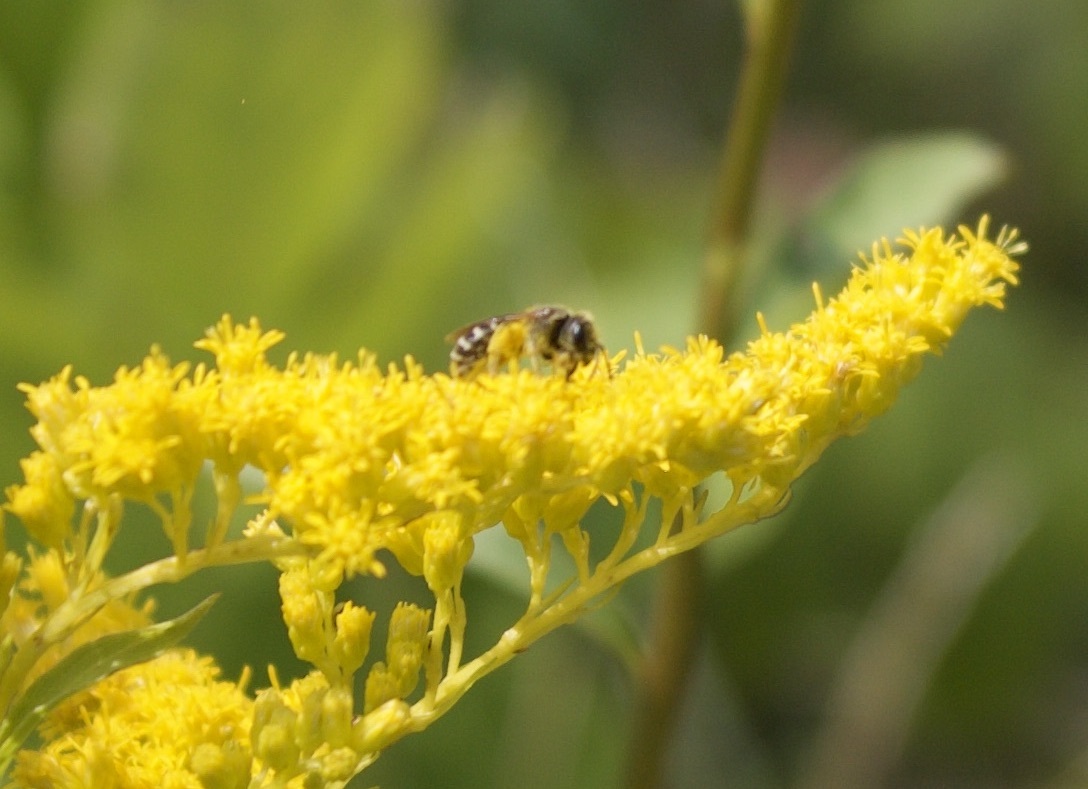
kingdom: Animalia
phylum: Arthropoda
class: Insecta
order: Hymenoptera
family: Halictidae
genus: Halictus
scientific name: Halictus ligatus
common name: Ligated furrow bee
